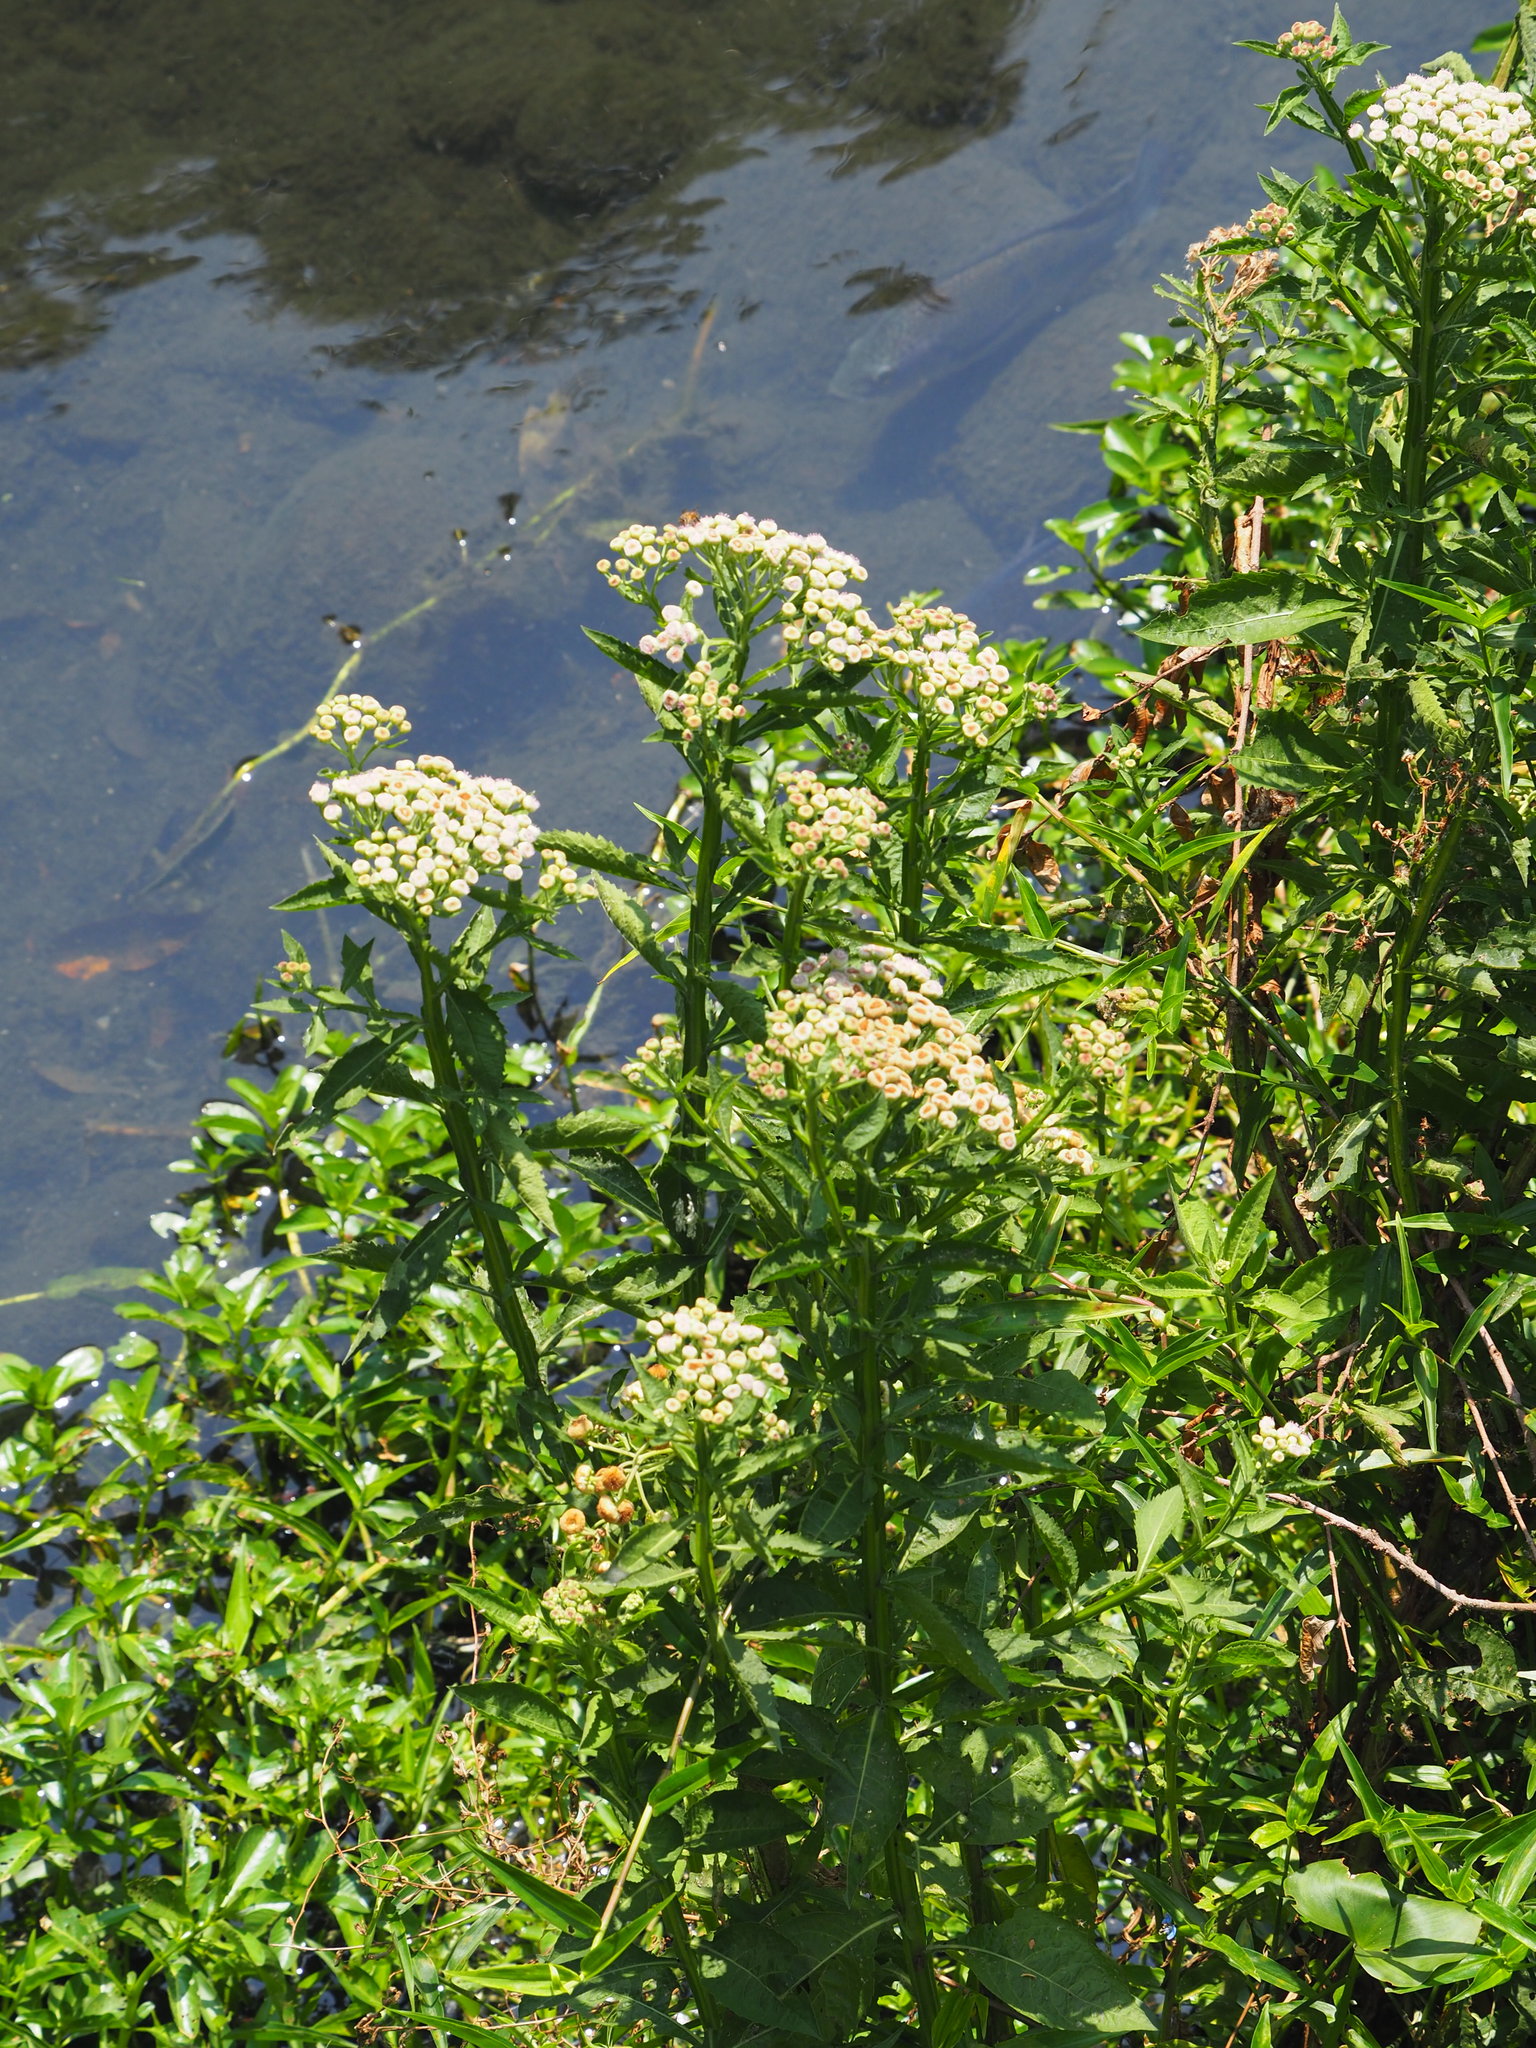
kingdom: Plantae
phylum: Tracheophyta
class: Magnoliopsida
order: Asterales
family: Asteraceae
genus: Pluchea
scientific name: Pluchea sagittalis
